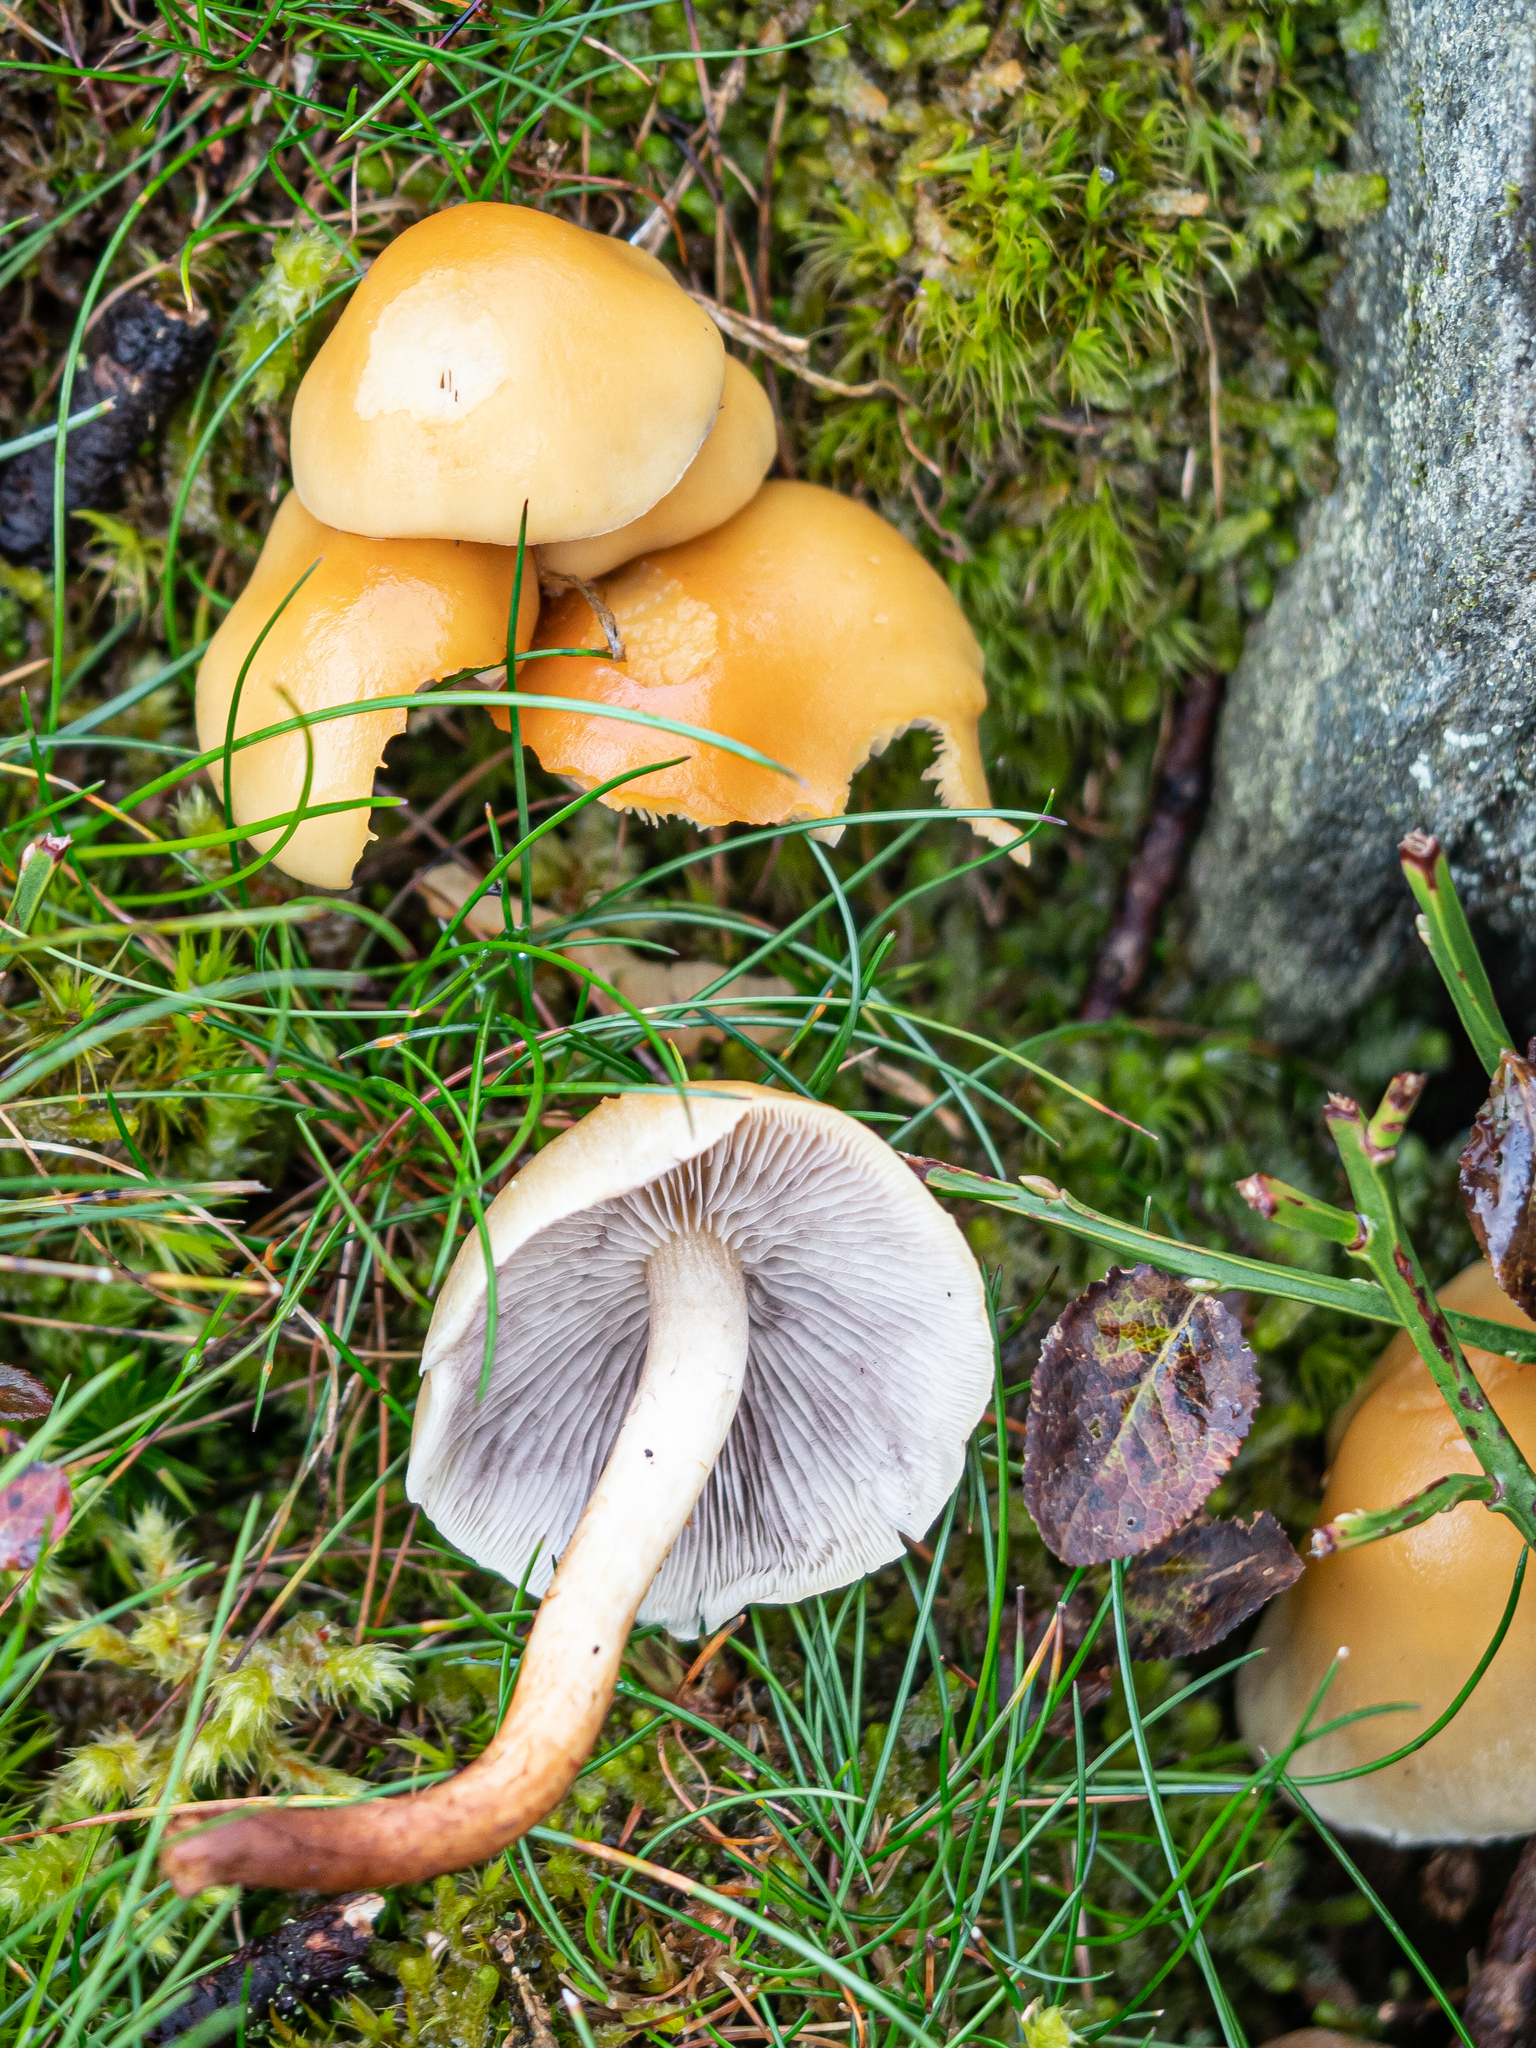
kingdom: Fungi
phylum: Basidiomycota
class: Agaricomycetes
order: Agaricales
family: Strophariaceae
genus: Hypholoma
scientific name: Hypholoma capnoides
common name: Conifer tuft
